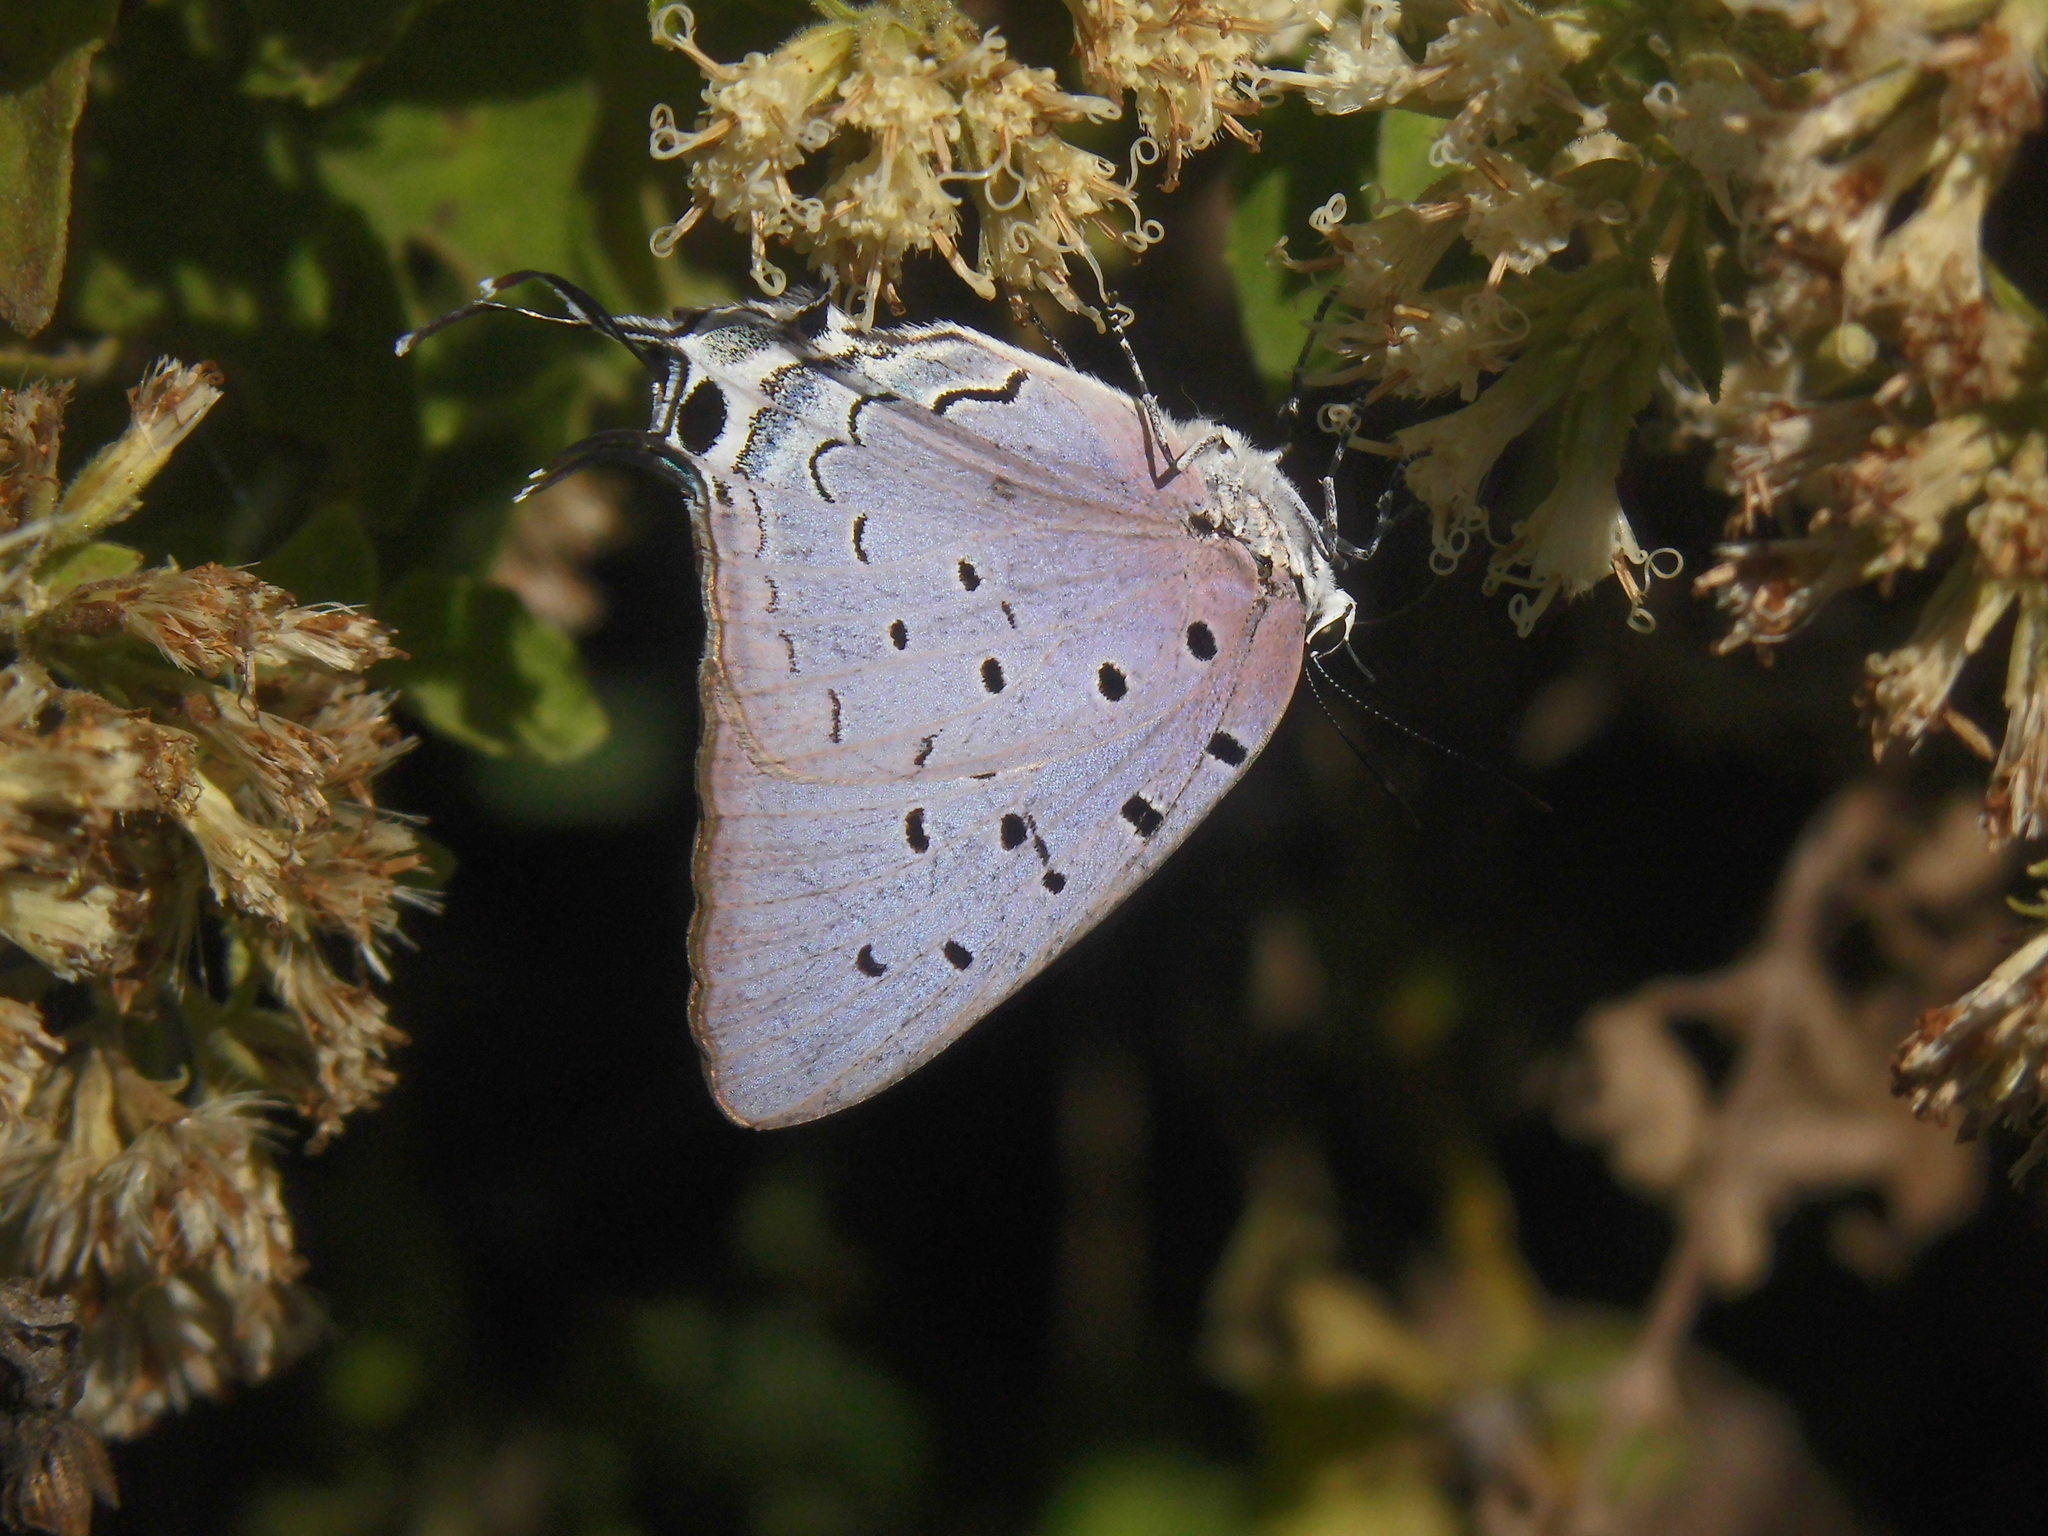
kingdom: Animalia
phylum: Arthropoda
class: Insecta
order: Lepidoptera
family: Lycaenidae
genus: Pseudolycaena
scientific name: Pseudolycaena marsyas
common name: Marsyas hairstreak
